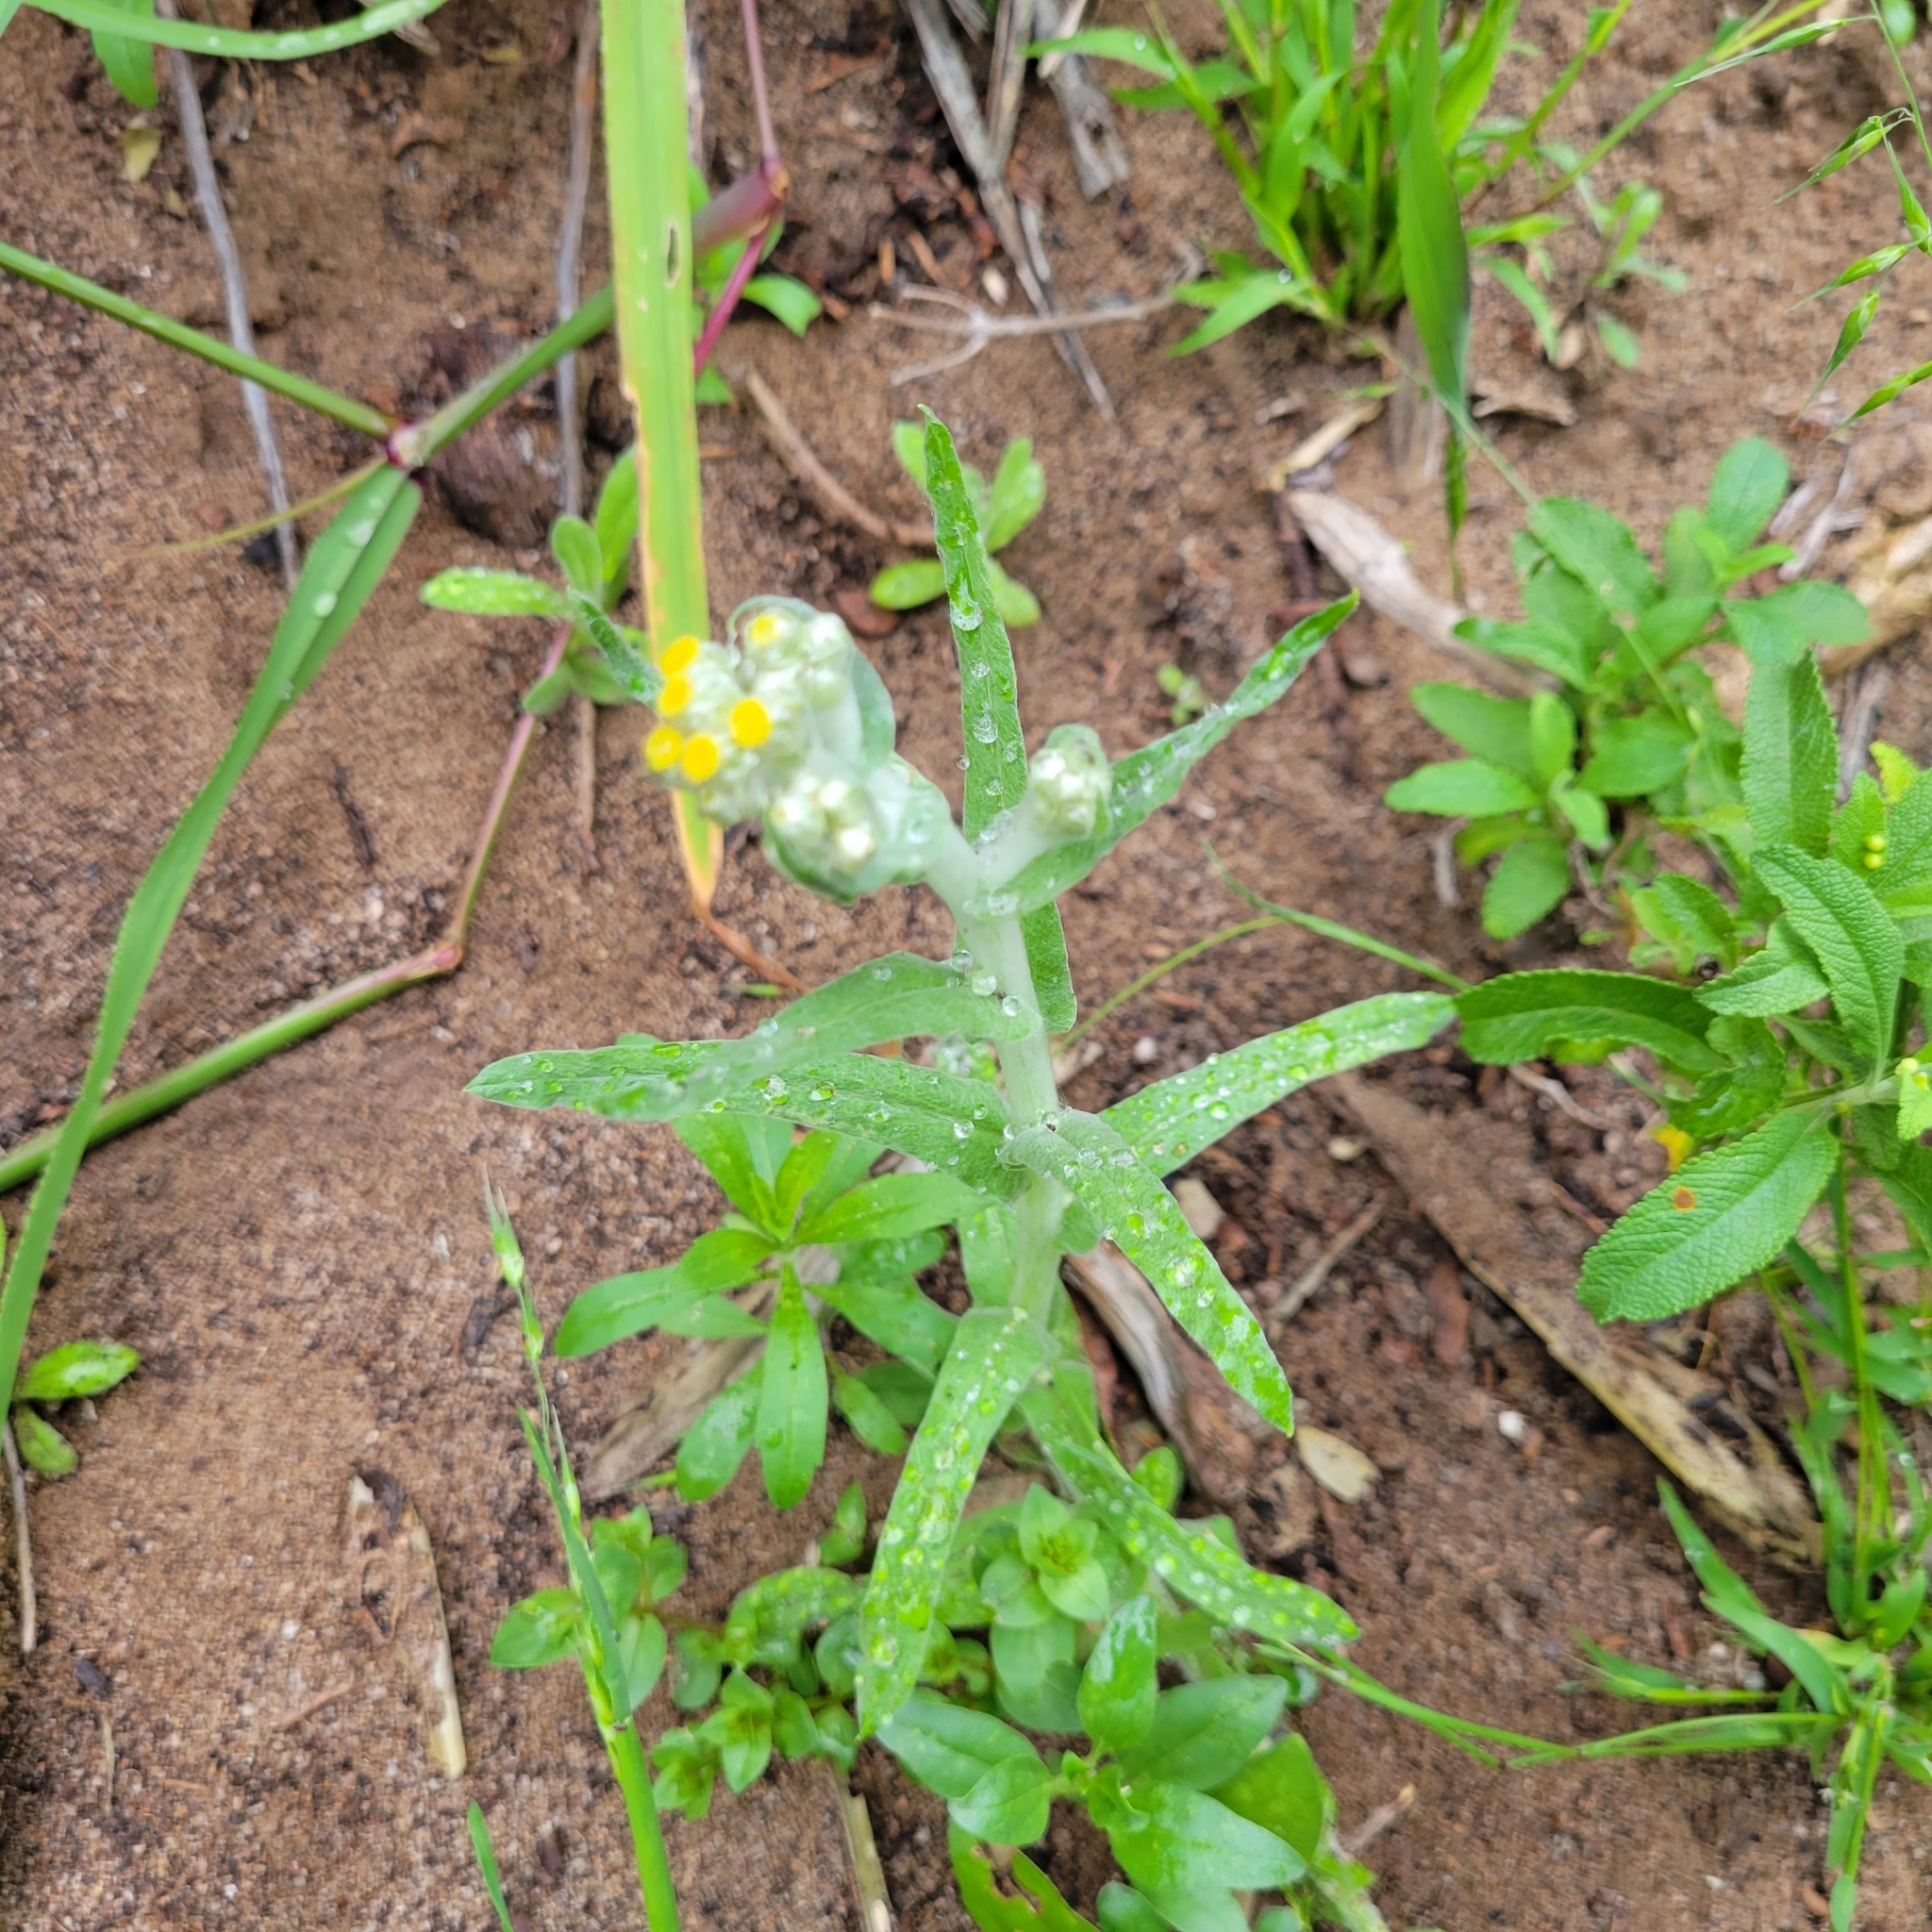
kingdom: Plantae
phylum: Tracheophyta
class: Magnoliopsida
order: Asterales
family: Asteraceae
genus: Pseudognaphalium
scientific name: Pseudognaphalium stramineum
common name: Cotton-batting-plant
